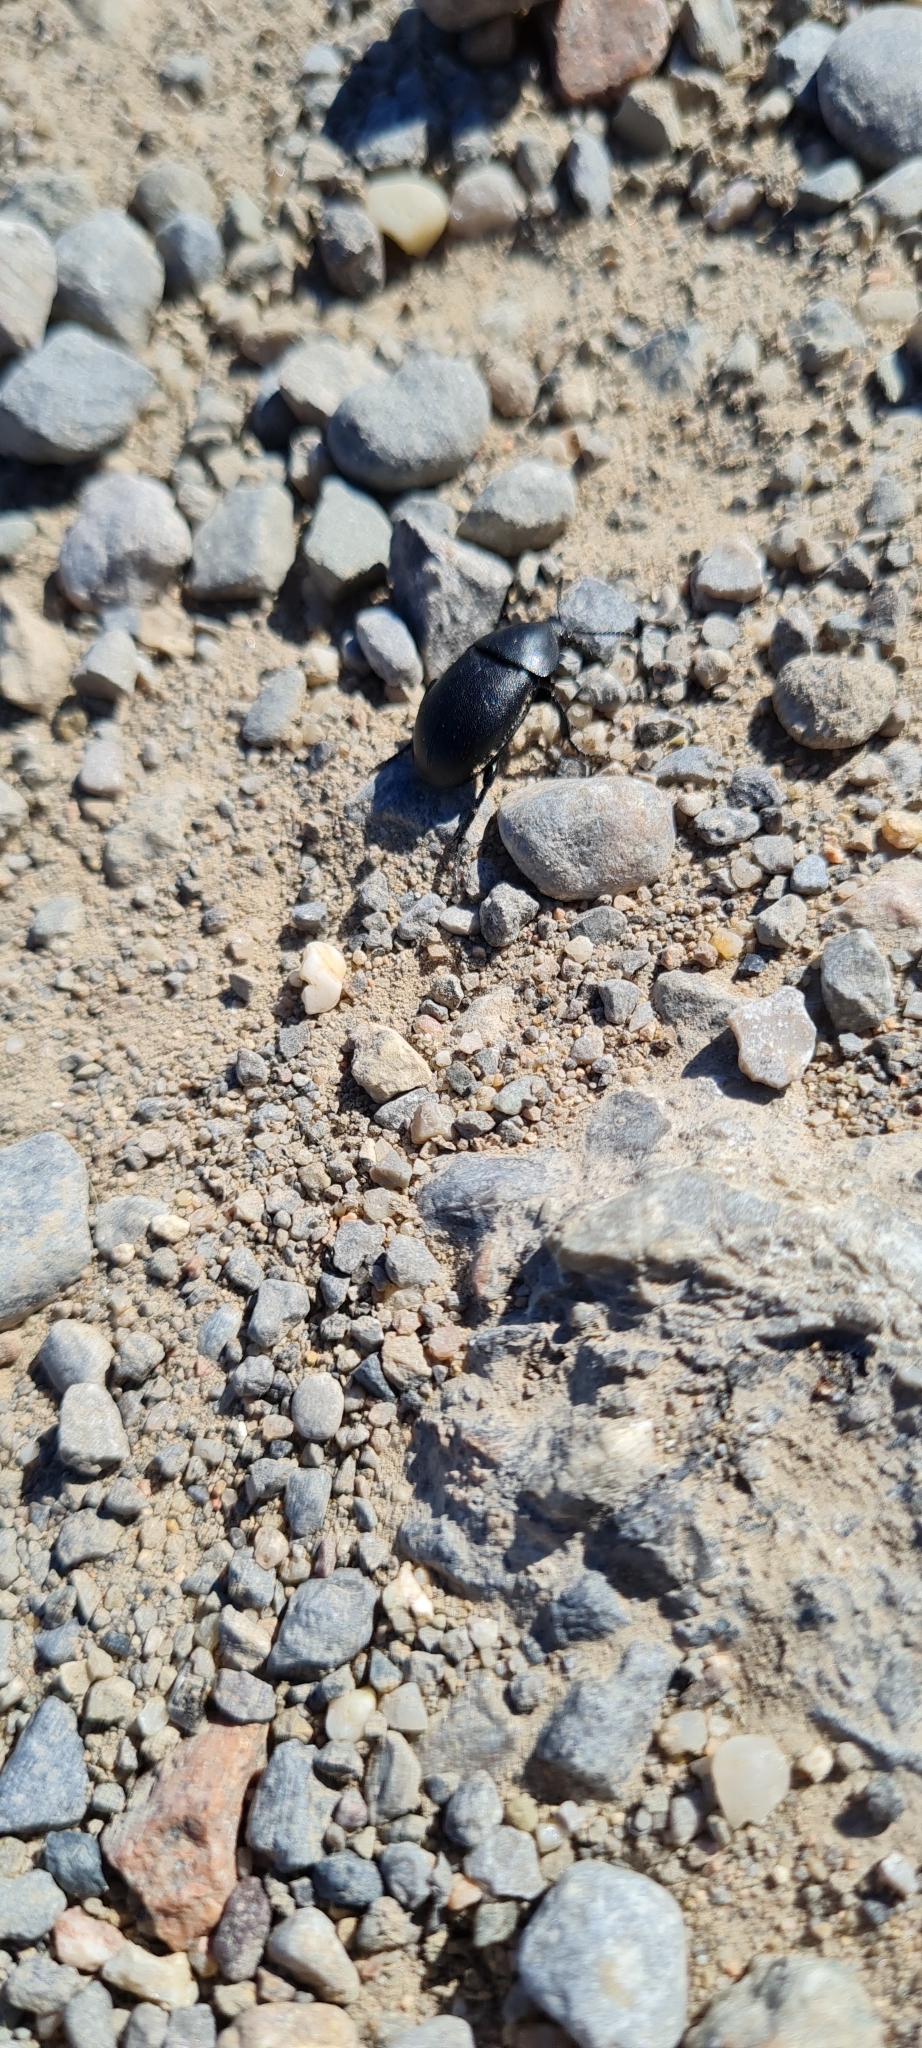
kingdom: Animalia
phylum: Arthropoda
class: Insecta
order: Coleoptera
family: Staphylinidae
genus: Silpha
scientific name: Silpha laevigata
